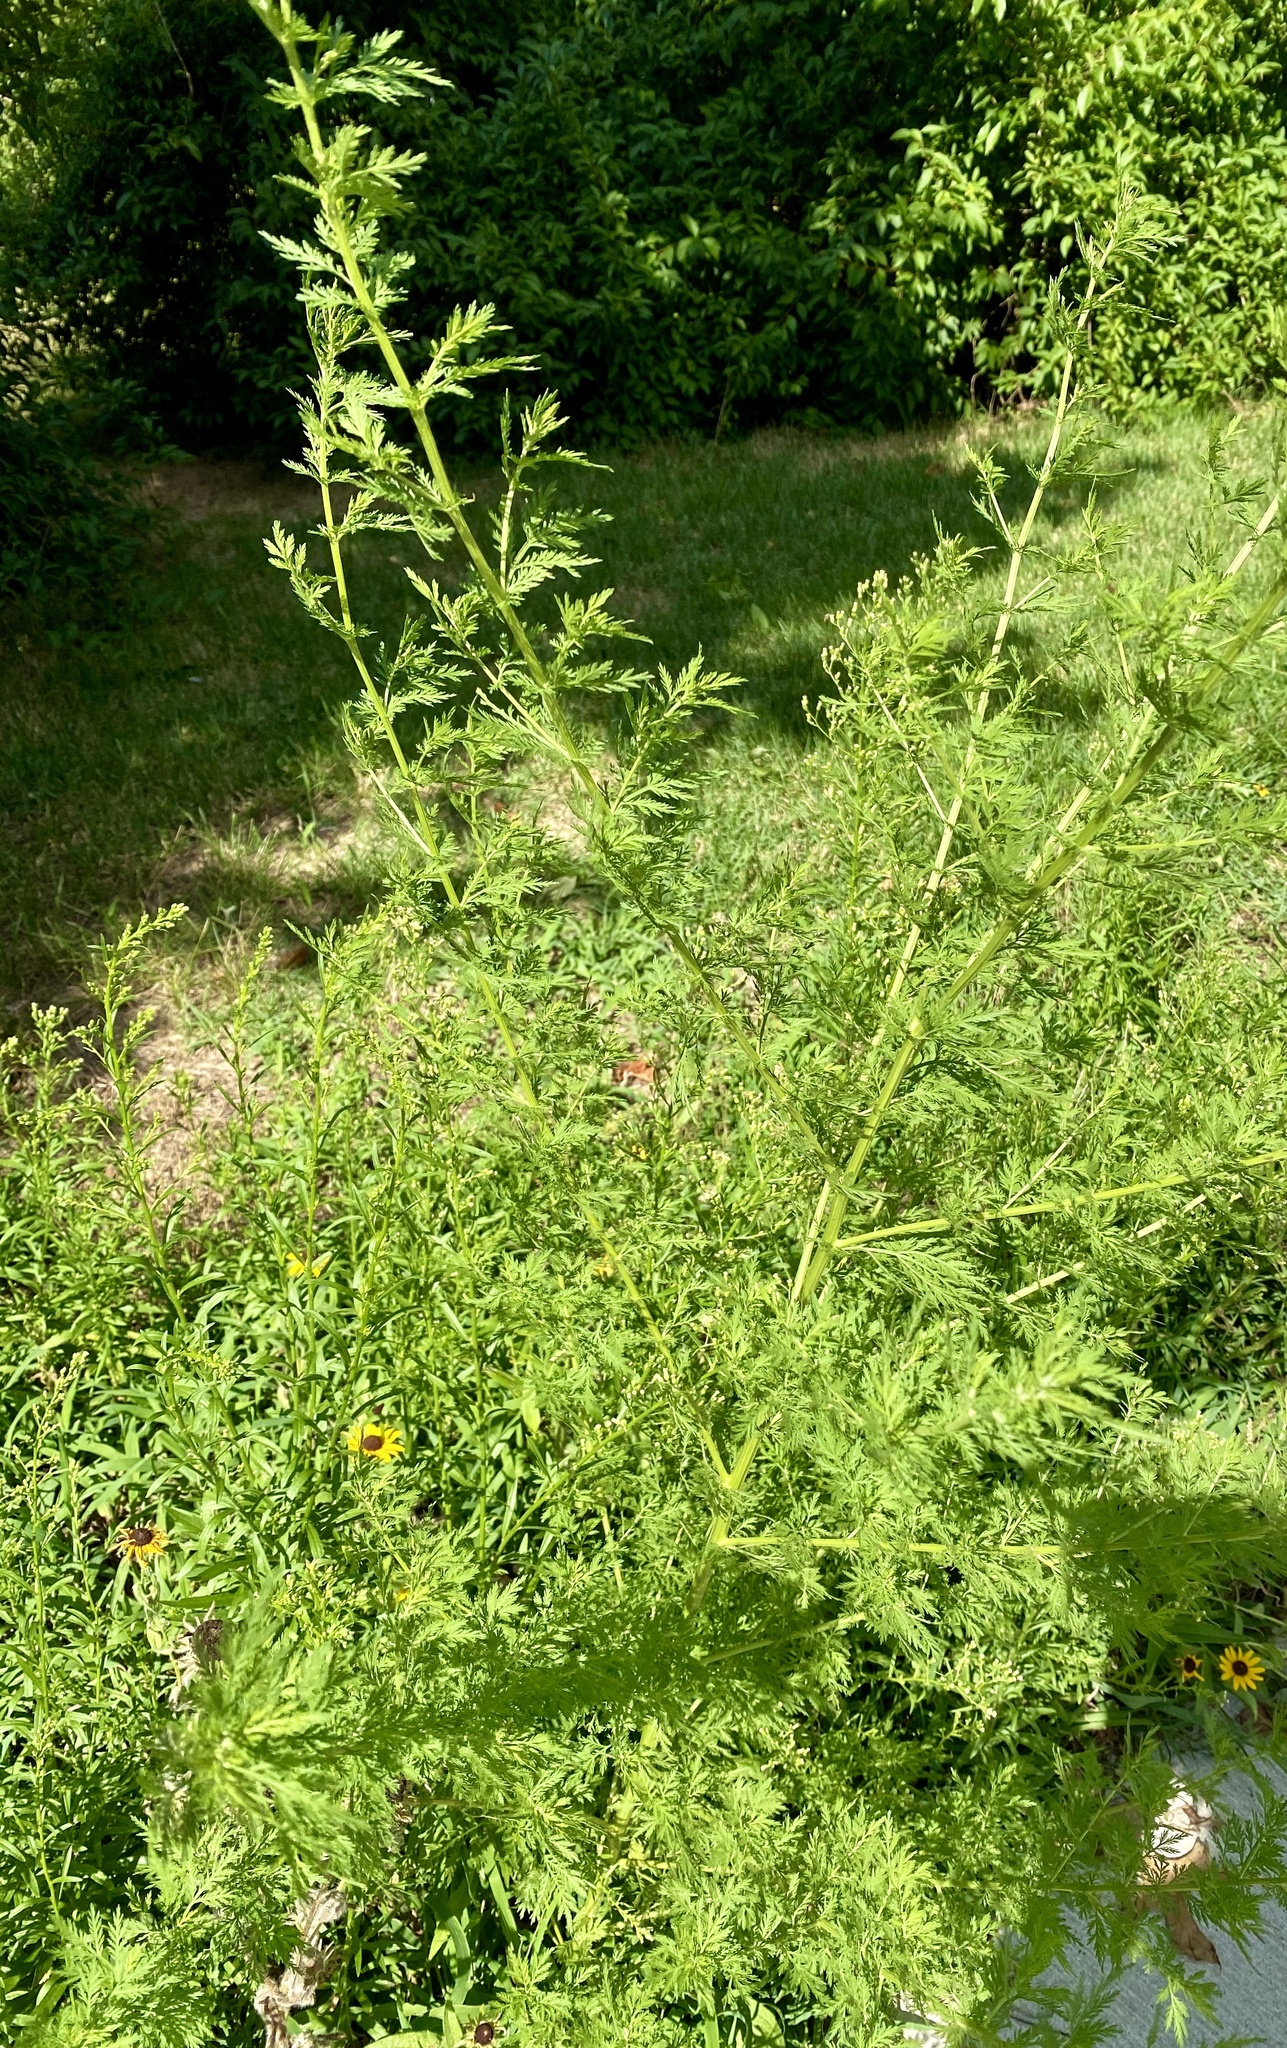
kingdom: Plantae
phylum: Tracheophyta
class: Magnoliopsida
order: Asterales
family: Asteraceae
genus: Artemisia
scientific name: Artemisia annua
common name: Sweet sagewort
